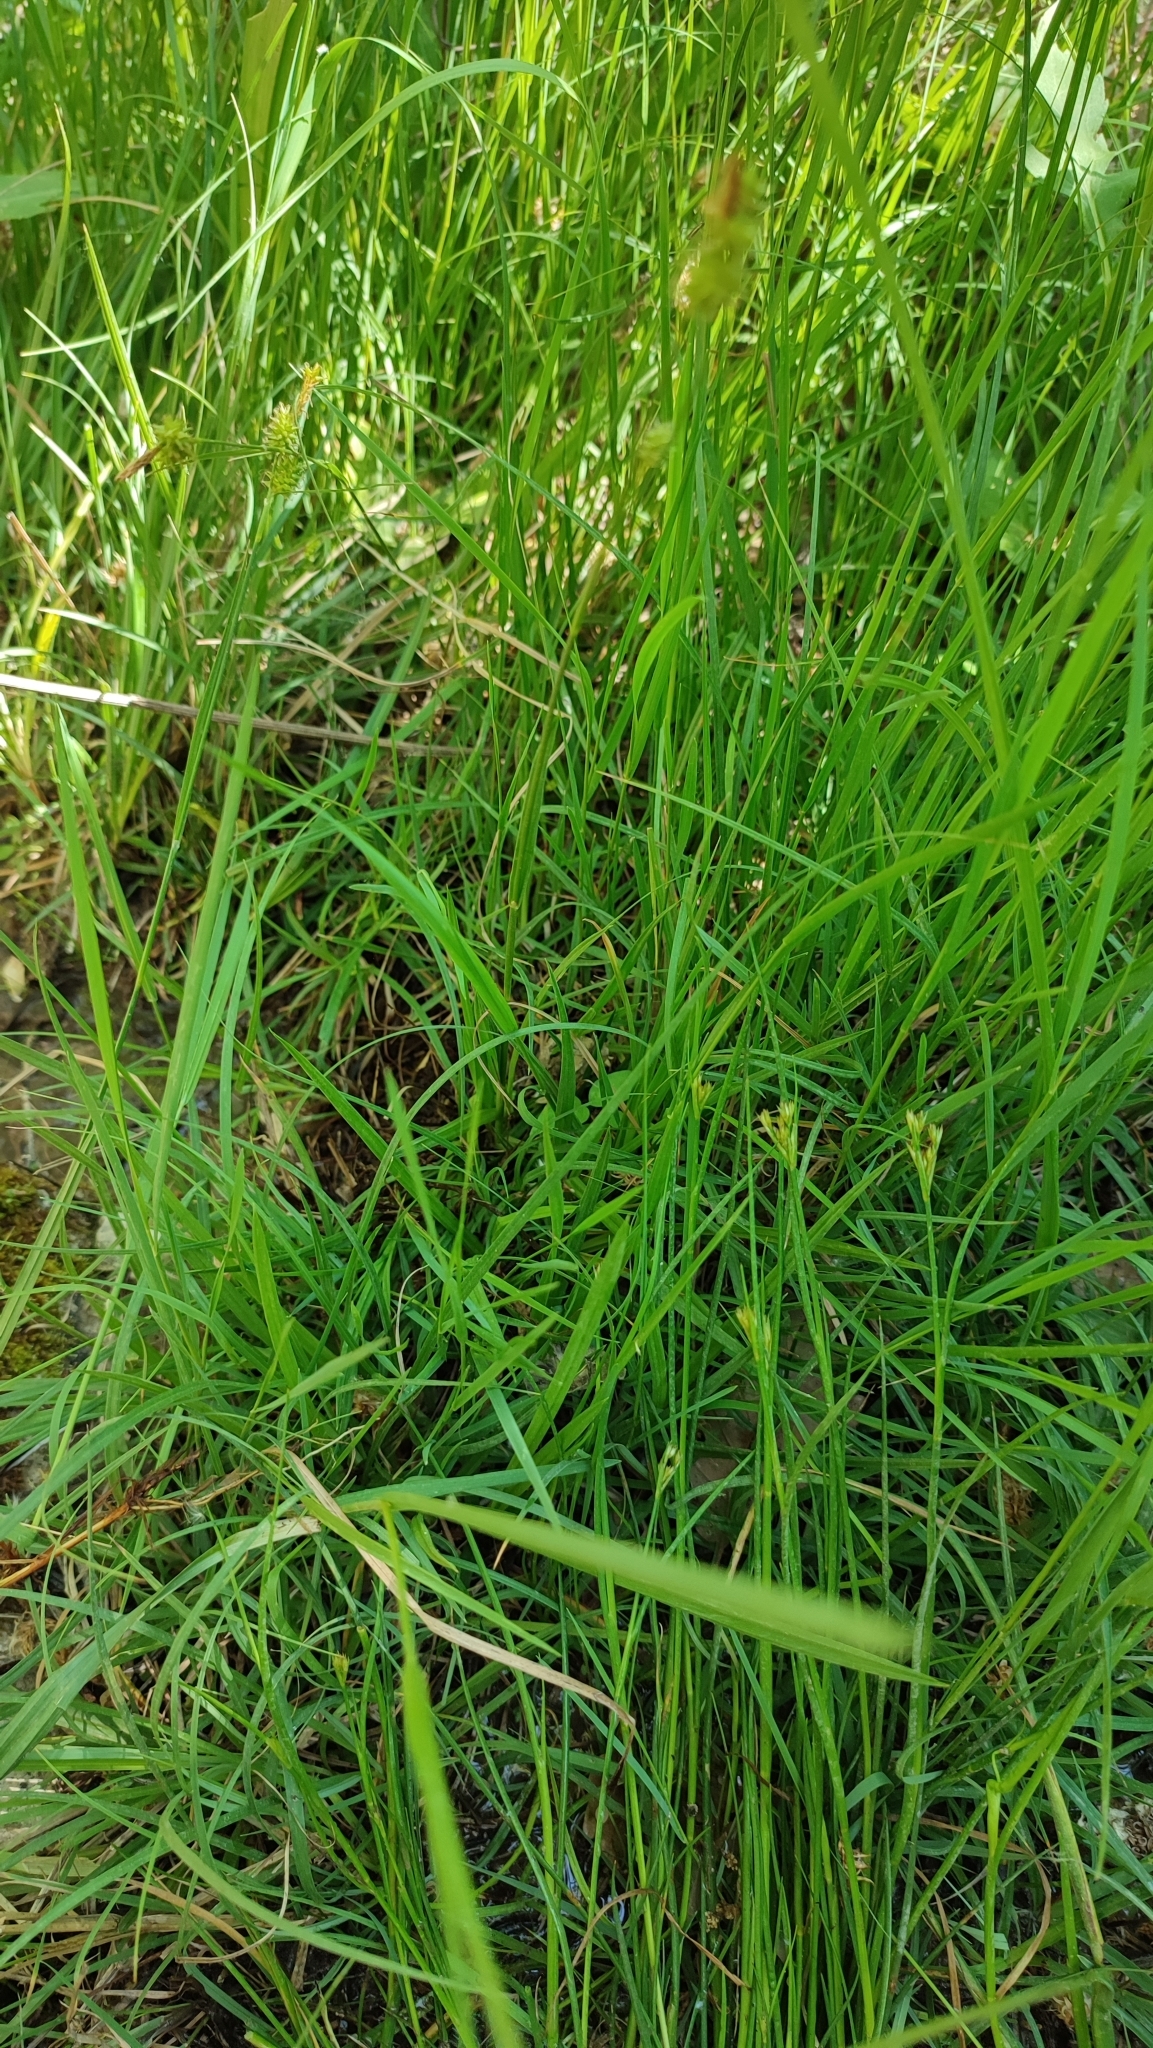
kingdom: Plantae
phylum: Tracheophyta
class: Liliopsida
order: Poales
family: Cyperaceae
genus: Carex
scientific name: Carex mairei
